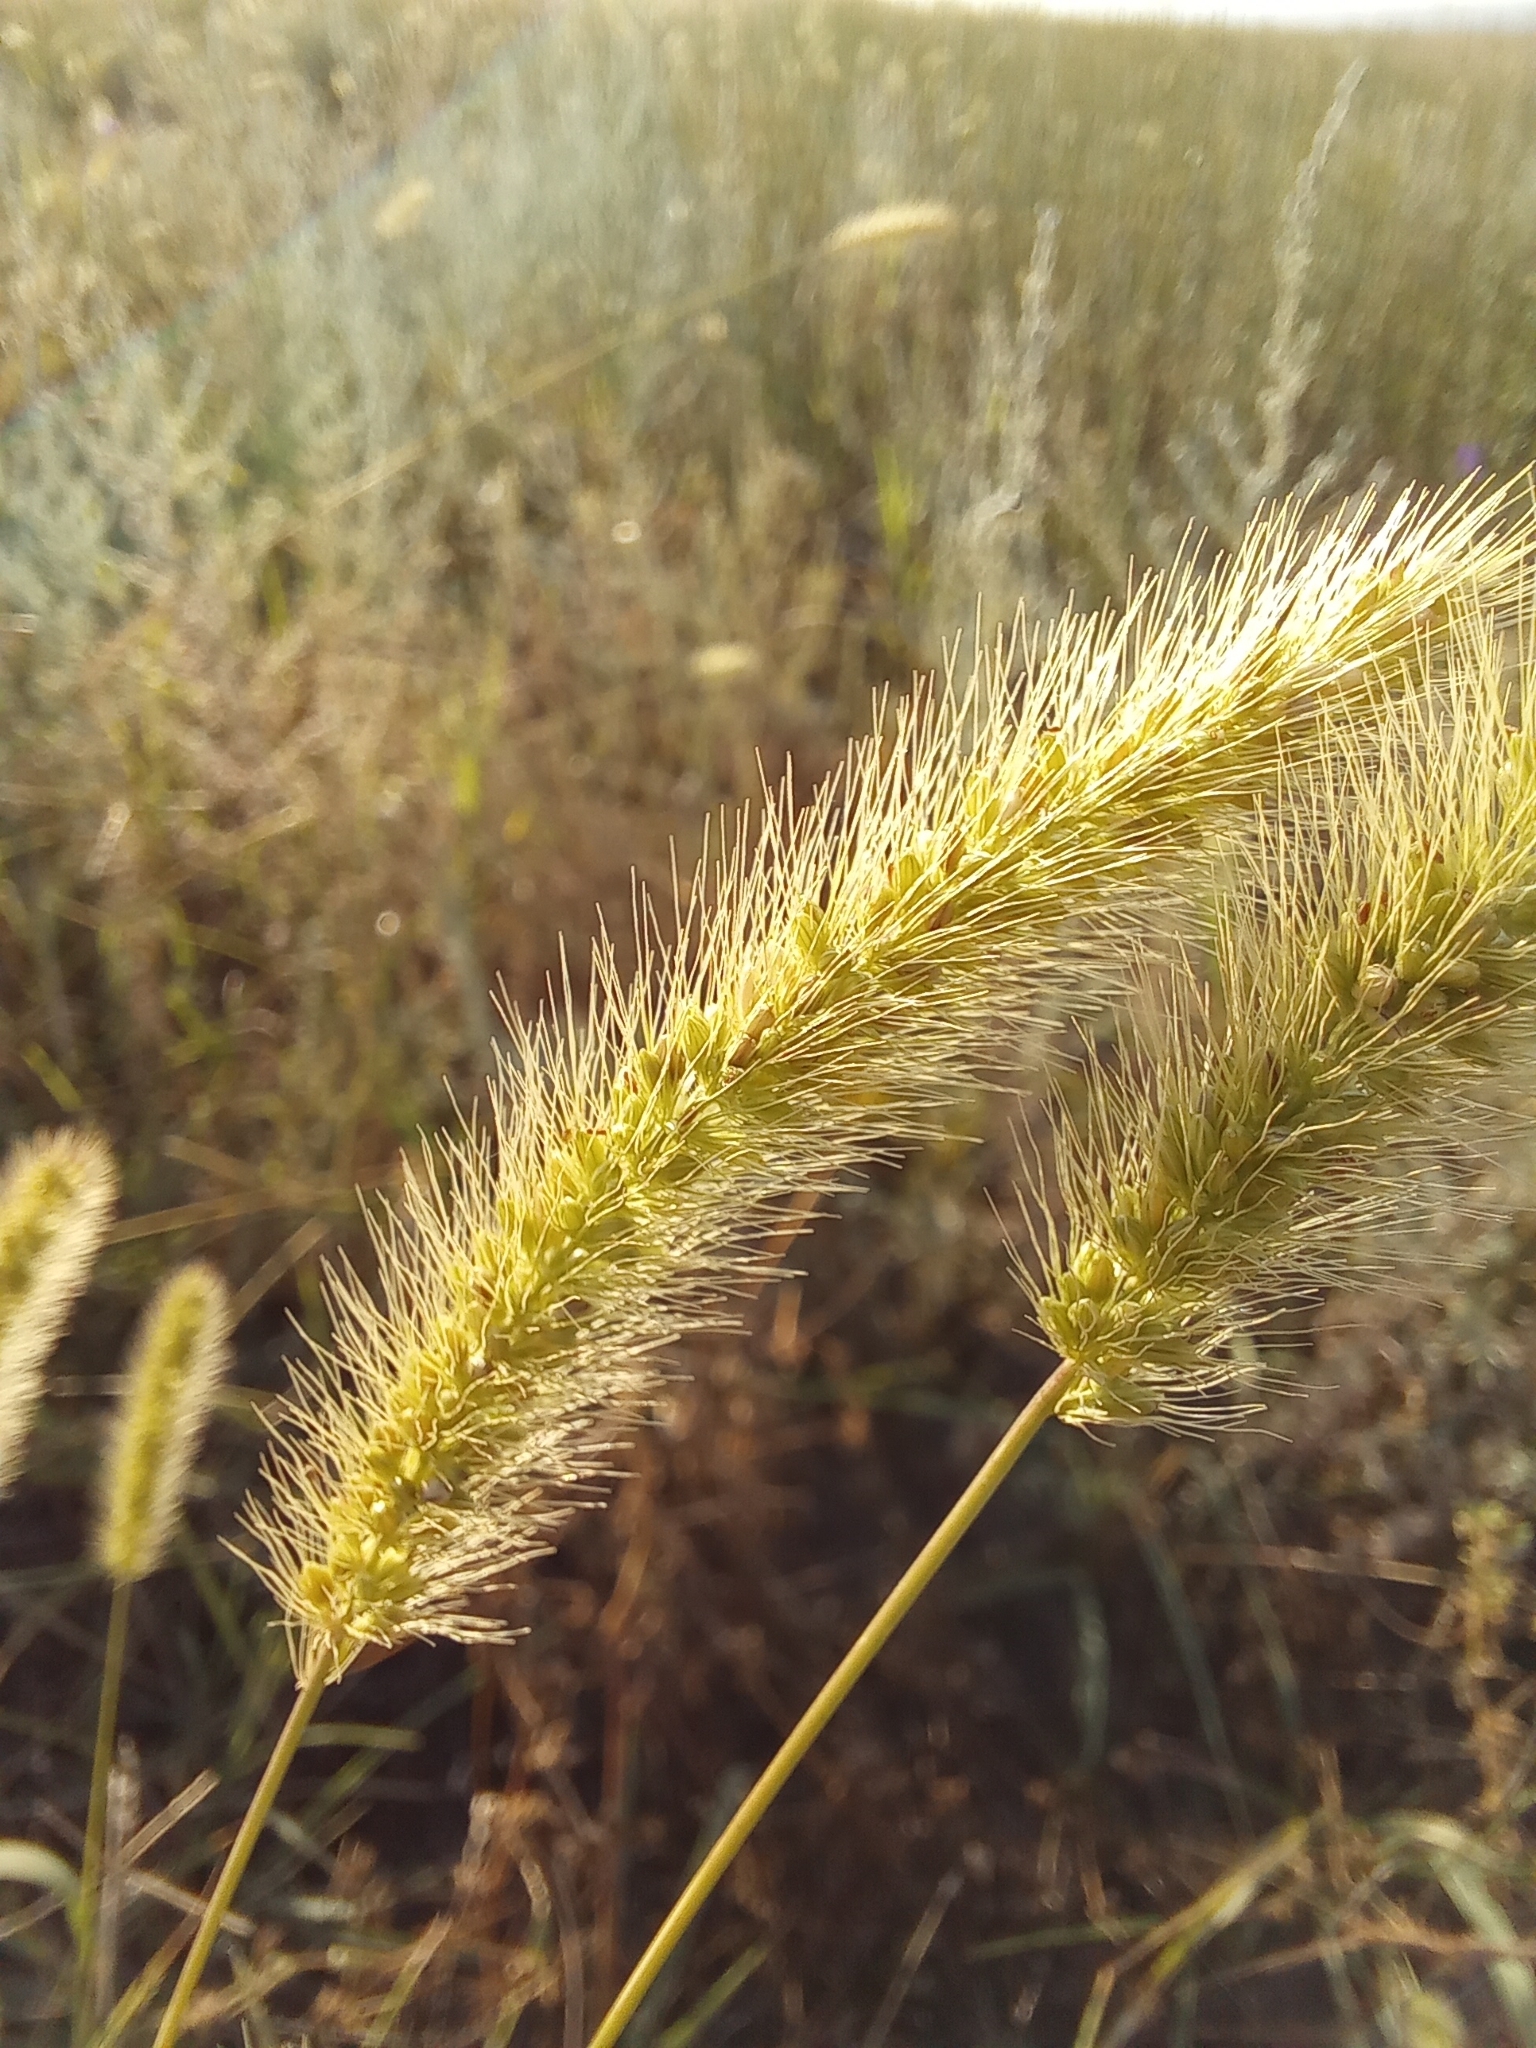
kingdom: Plantae
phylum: Tracheophyta
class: Liliopsida
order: Poales
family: Poaceae
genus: Setaria
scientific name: Setaria viridis
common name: Green bristlegrass
